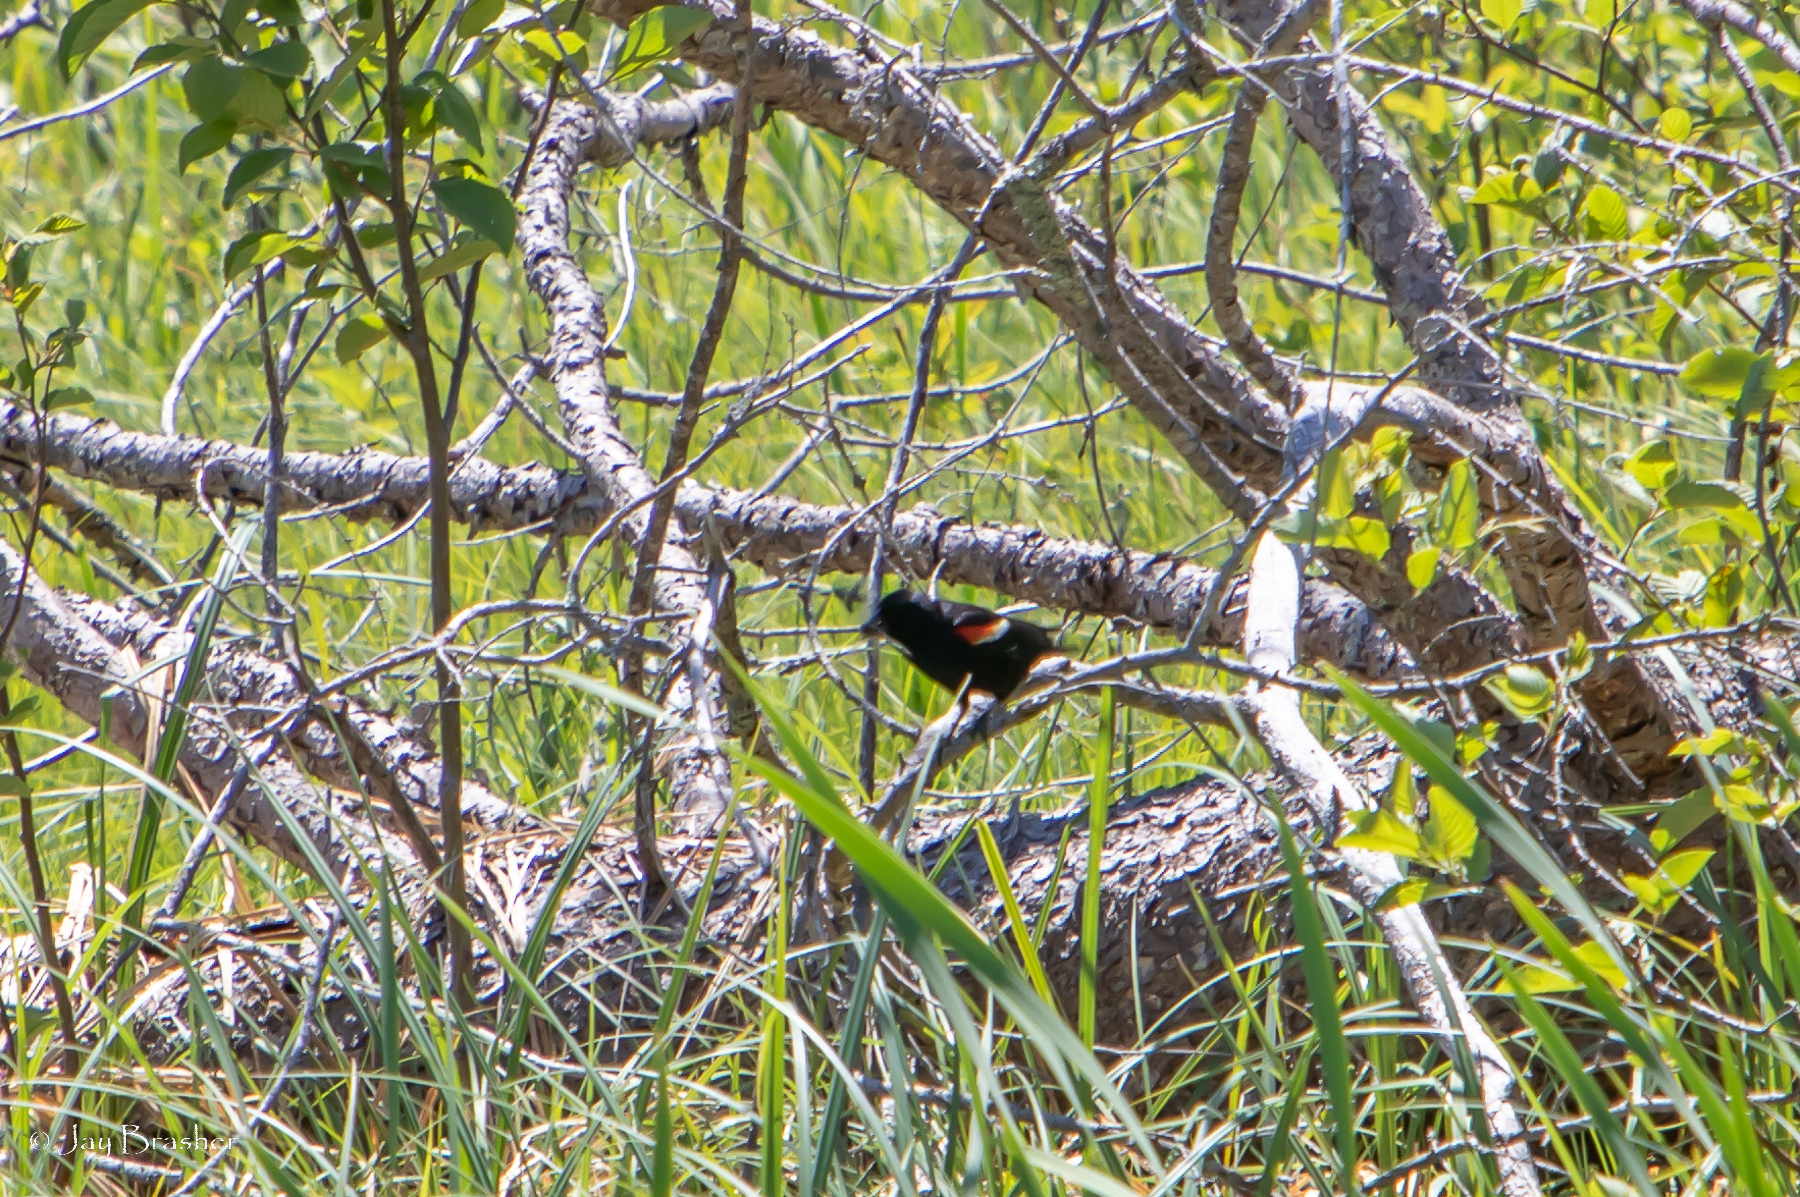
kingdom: Animalia
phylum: Chordata
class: Aves
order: Passeriformes
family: Icteridae
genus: Agelaius
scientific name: Agelaius phoeniceus
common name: Red-winged blackbird
